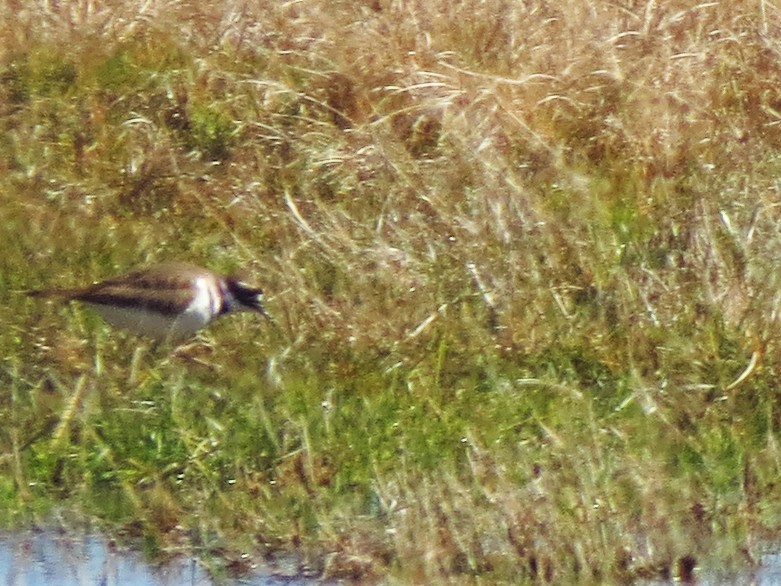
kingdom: Animalia
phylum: Chordata
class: Aves
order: Charadriiformes
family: Charadriidae
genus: Charadrius
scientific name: Charadrius vociferus
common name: Killdeer
